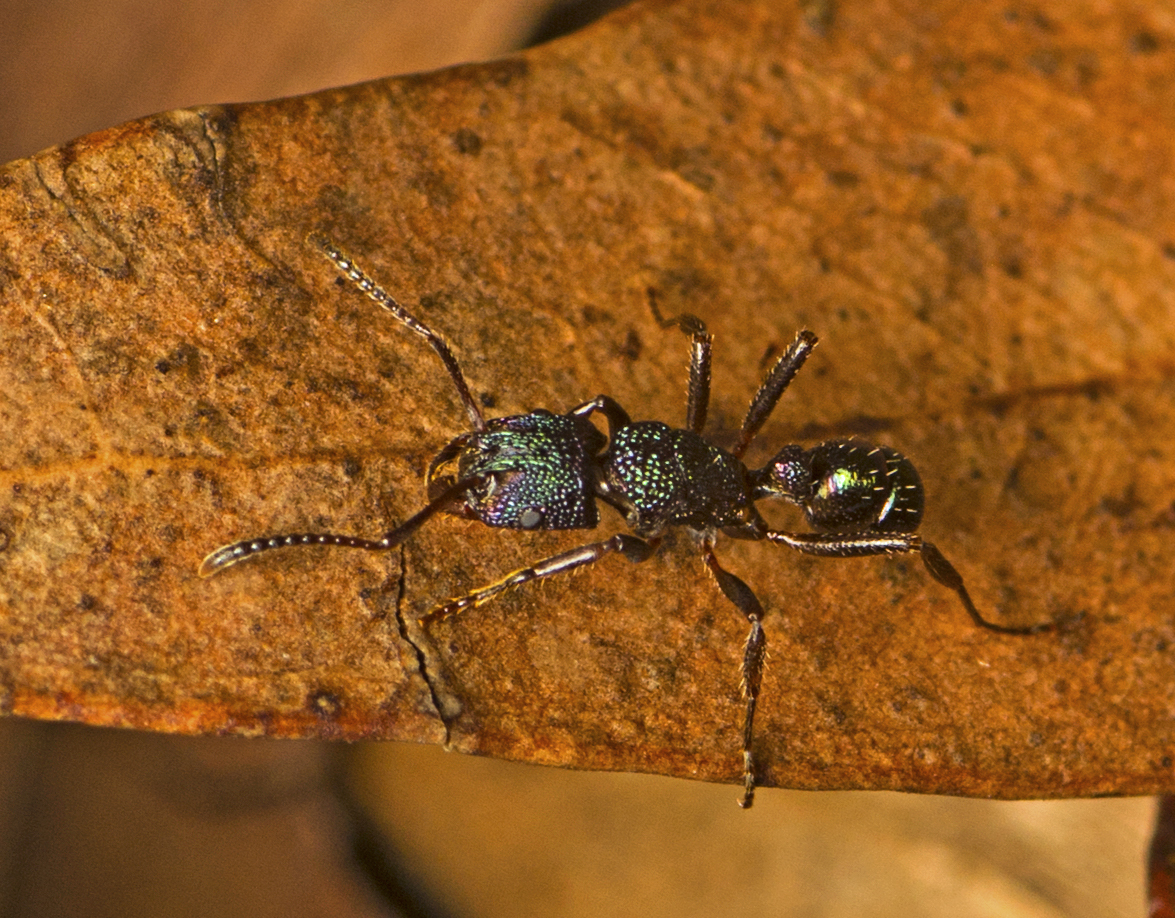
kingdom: Animalia
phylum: Arthropoda
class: Insecta
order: Hymenoptera
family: Formicidae
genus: Rhytidoponera
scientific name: Rhytidoponera metallica
